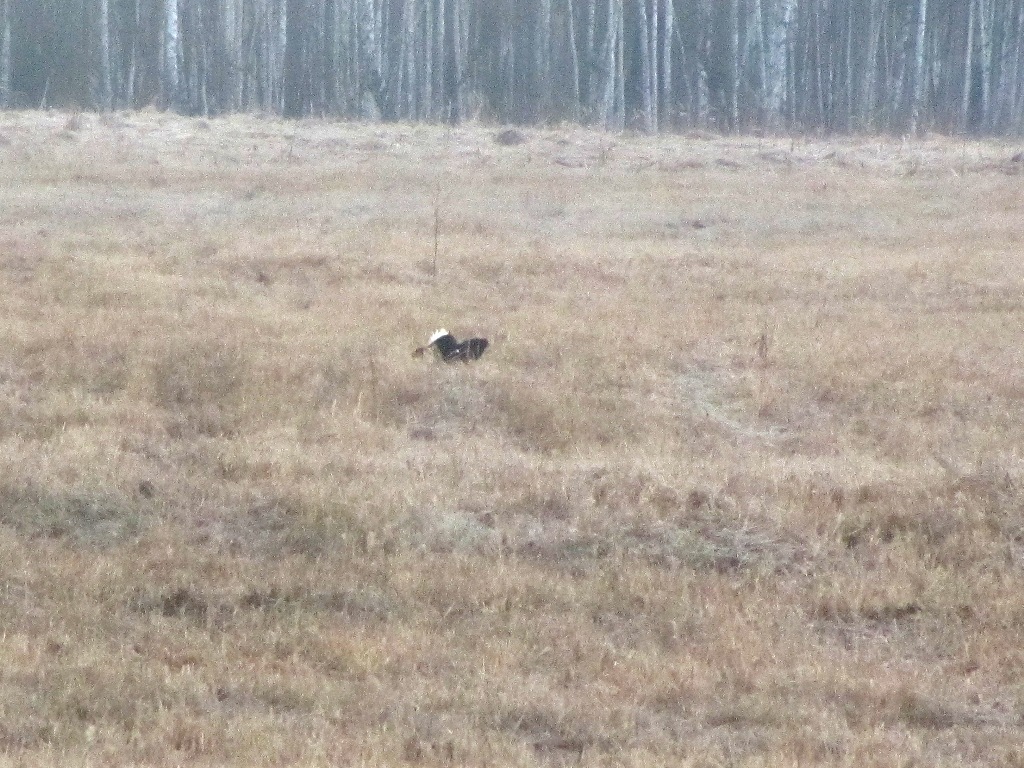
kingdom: Animalia
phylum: Chordata
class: Aves
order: Galliformes
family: Phasianidae
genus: Lyrurus
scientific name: Lyrurus tetrix
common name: Black grouse
